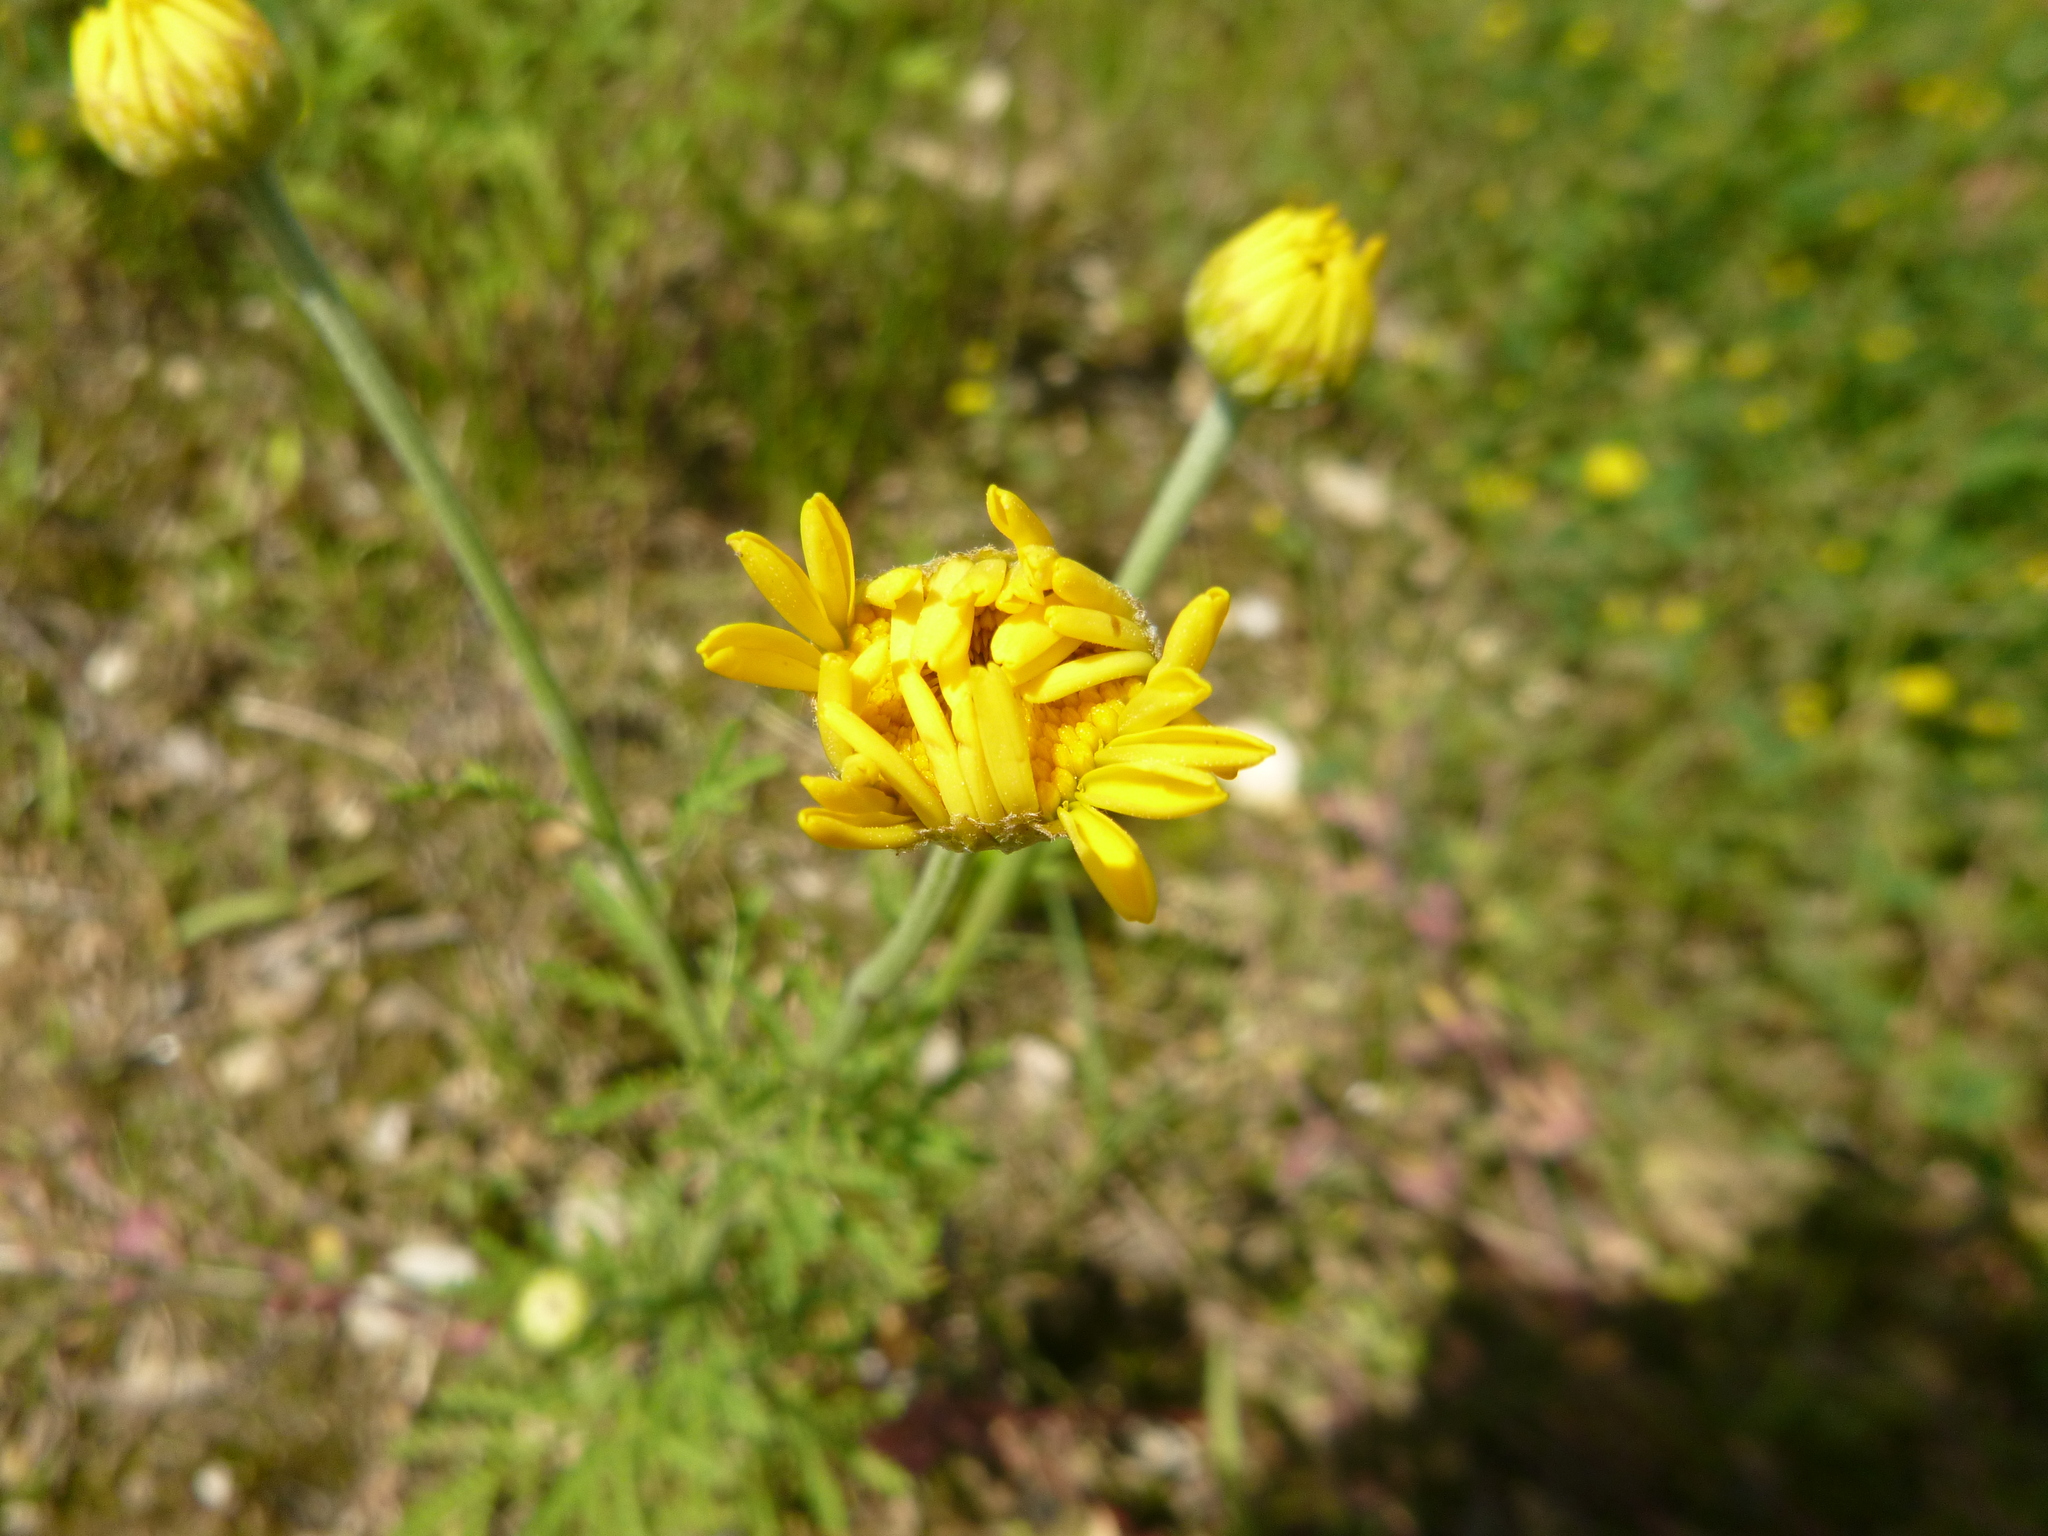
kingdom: Plantae
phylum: Tracheophyta
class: Magnoliopsida
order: Asterales
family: Asteraceae
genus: Cota
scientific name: Cota tinctoria
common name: Golden chamomile
